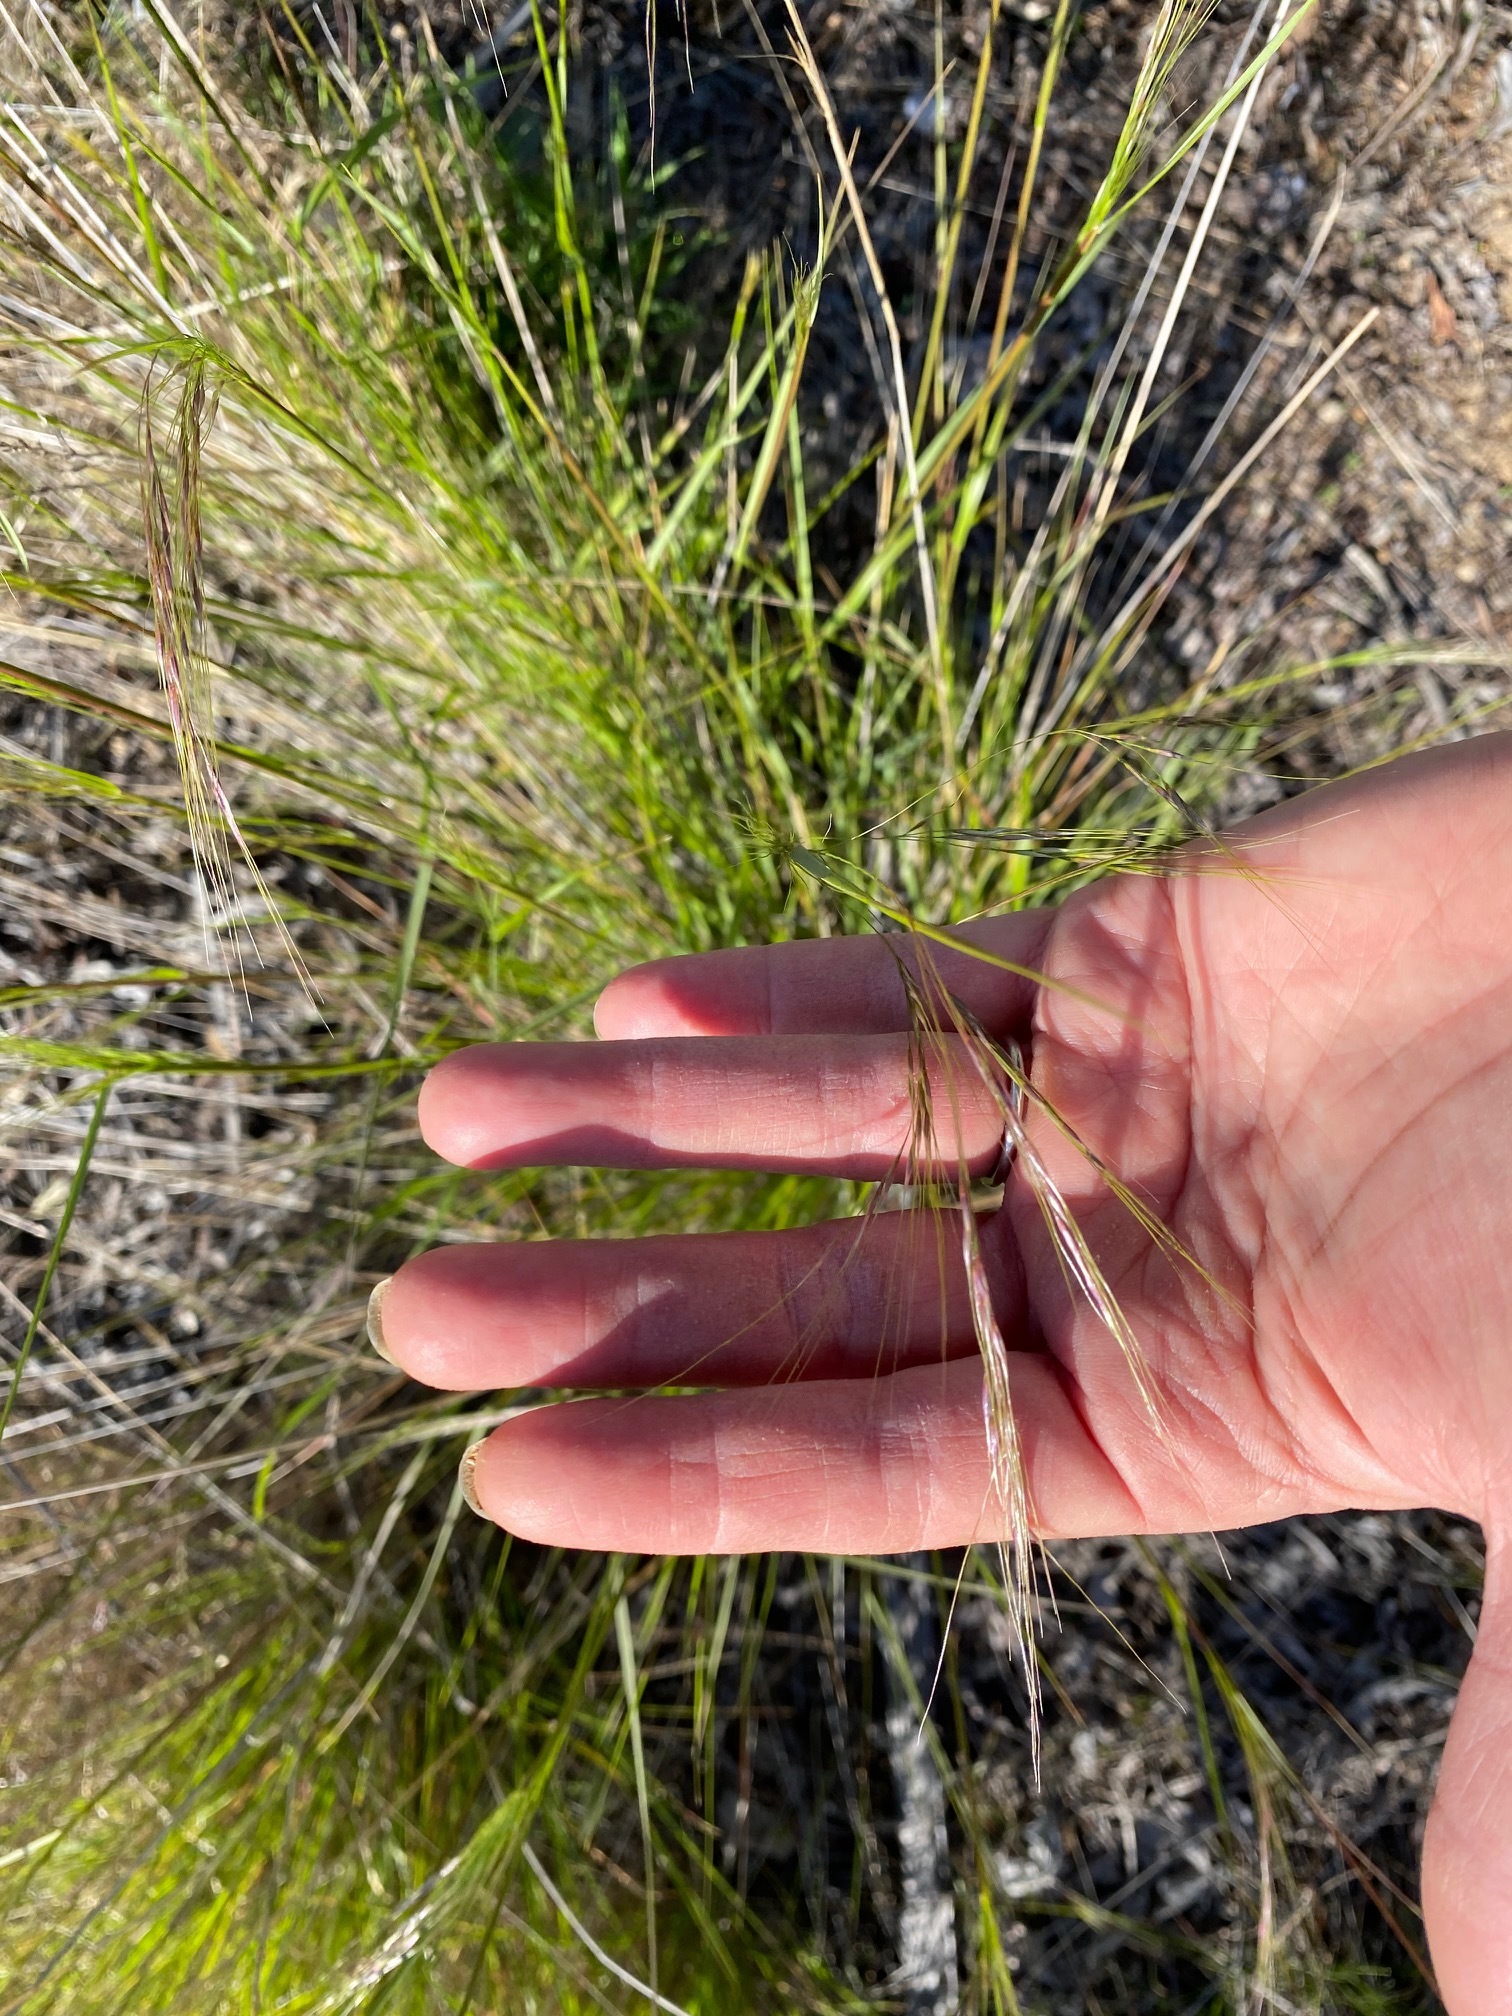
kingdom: Plantae
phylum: Tracheophyta
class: Liliopsida
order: Poales
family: Poaceae
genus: Aristida
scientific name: Aristida purpurea
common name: Purple threeawn
